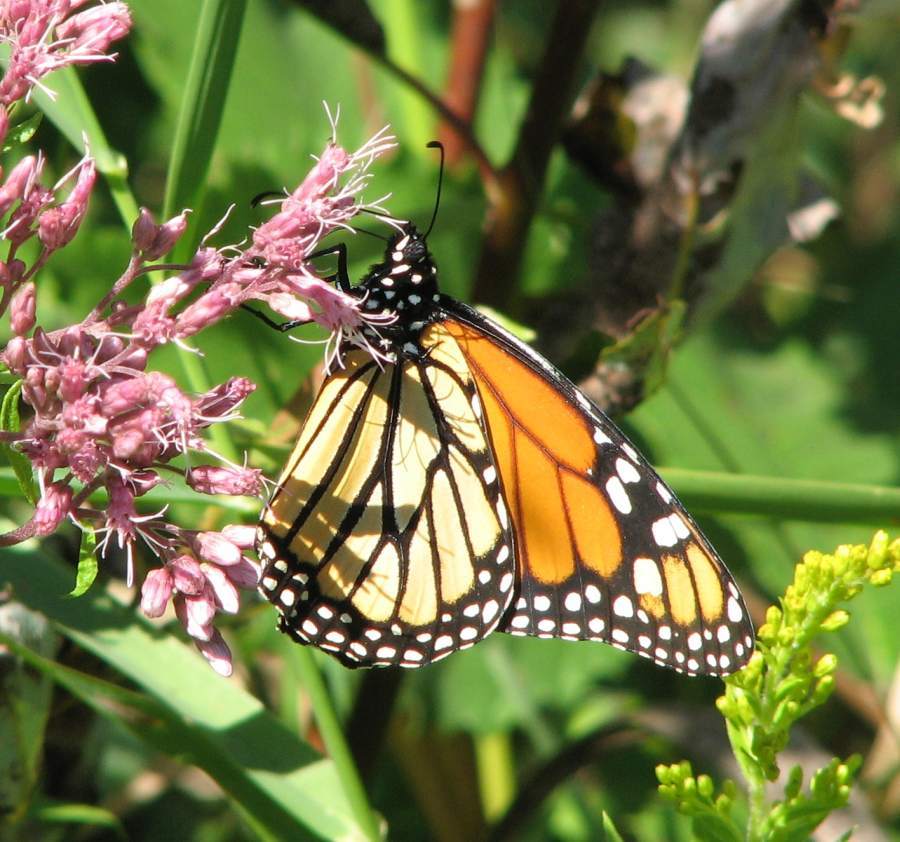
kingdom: Animalia
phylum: Arthropoda
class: Insecta
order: Lepidoptera
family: Nymphalidae
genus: Danaus
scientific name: Danaus plexippus
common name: Monarch
